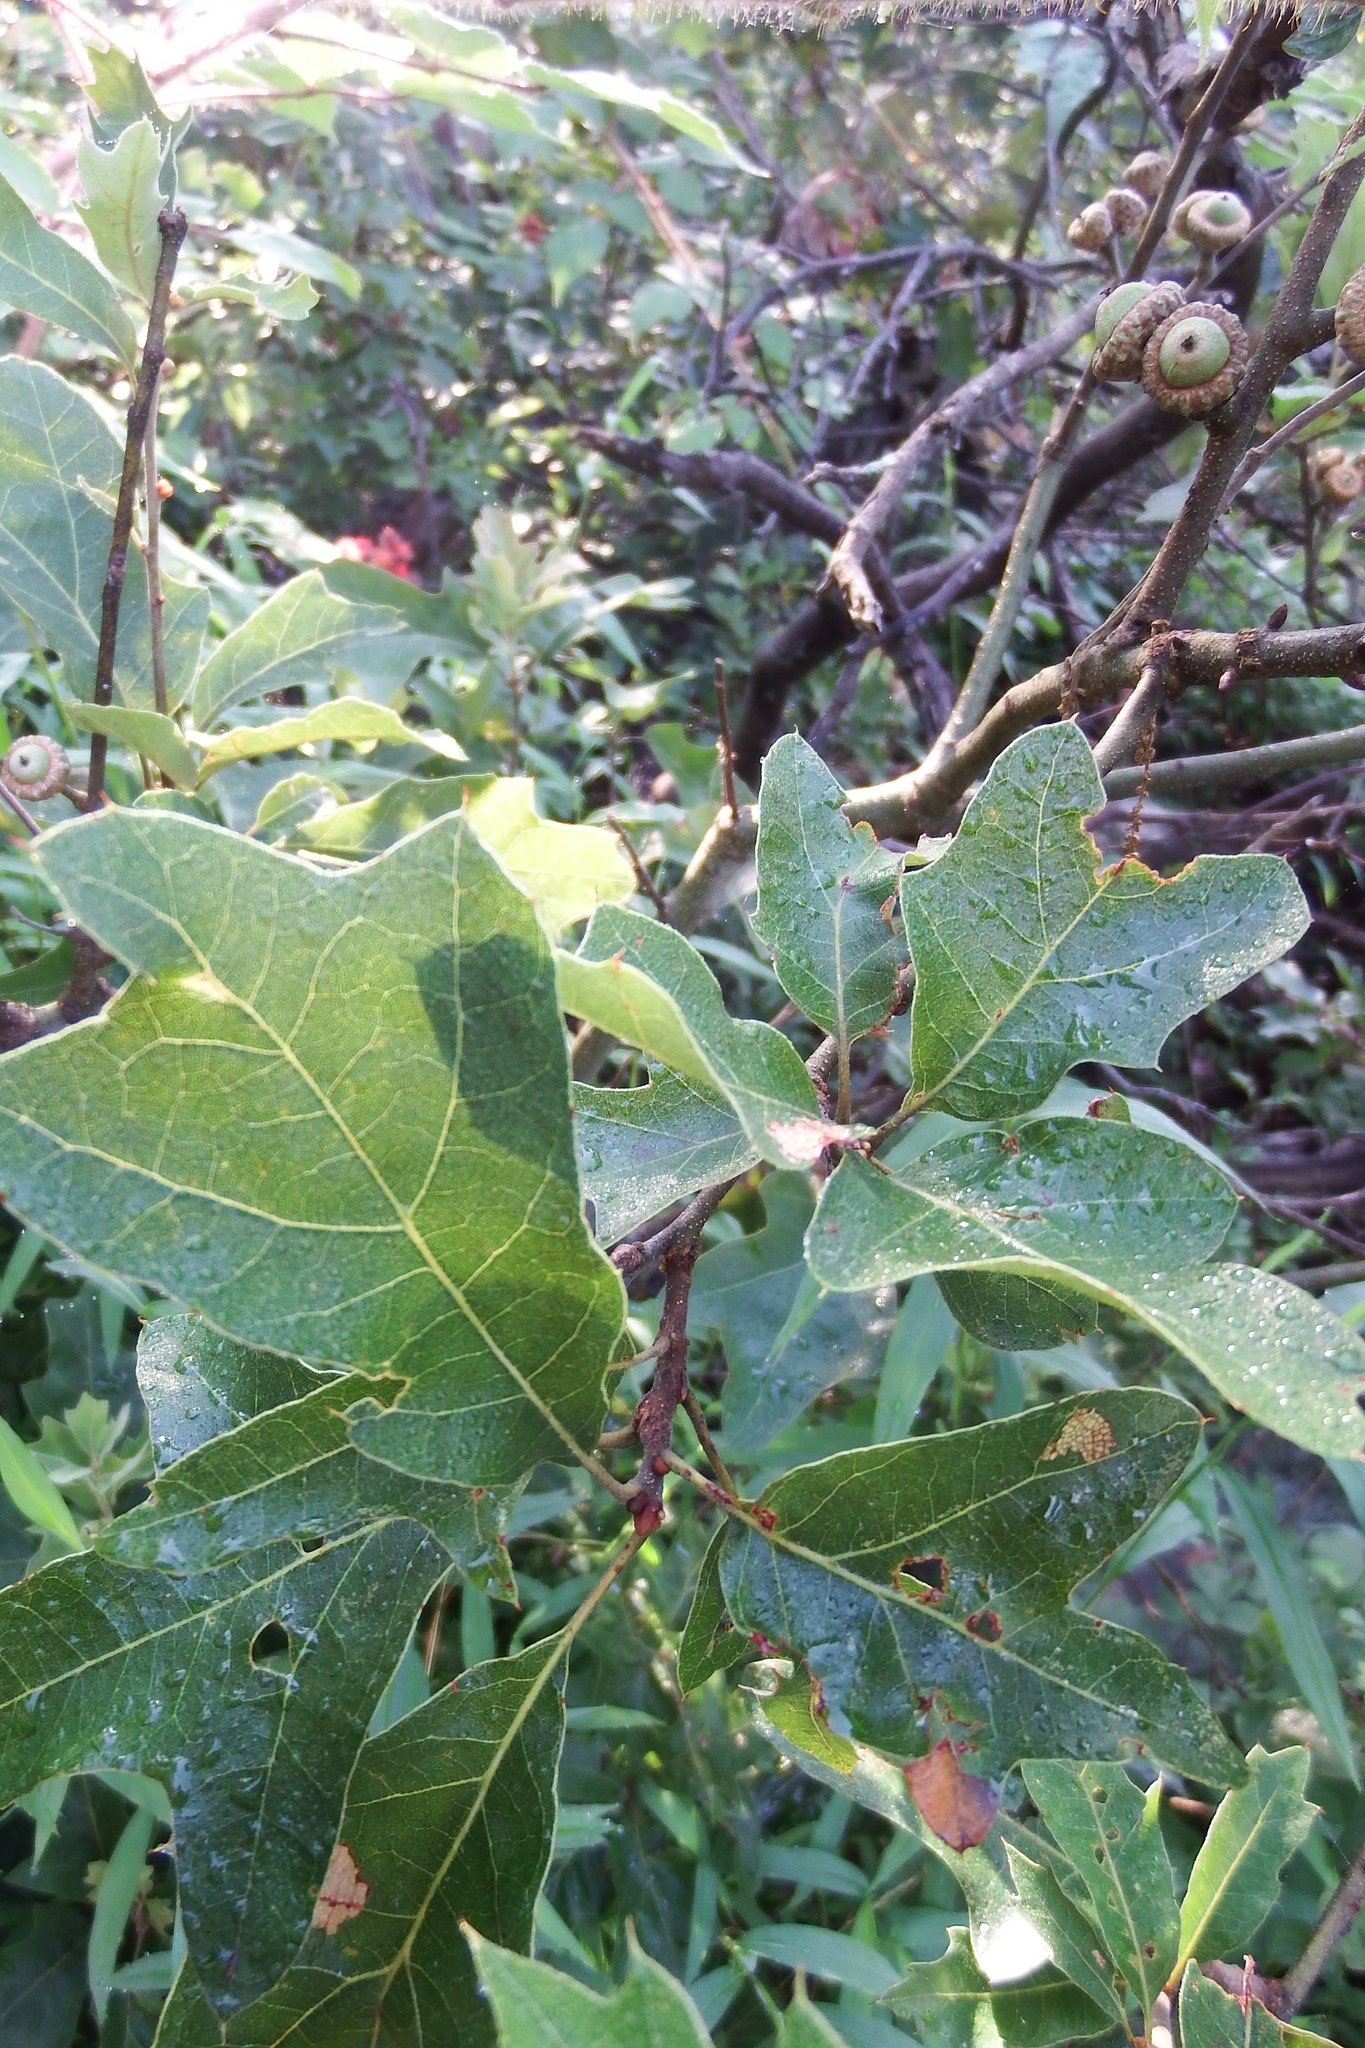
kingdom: Plantae
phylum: Tracheophyta
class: Magnoliopsida
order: Fagales
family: Fagaceae
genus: Quercus
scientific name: Quercus ilicifolia
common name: Bear oak
